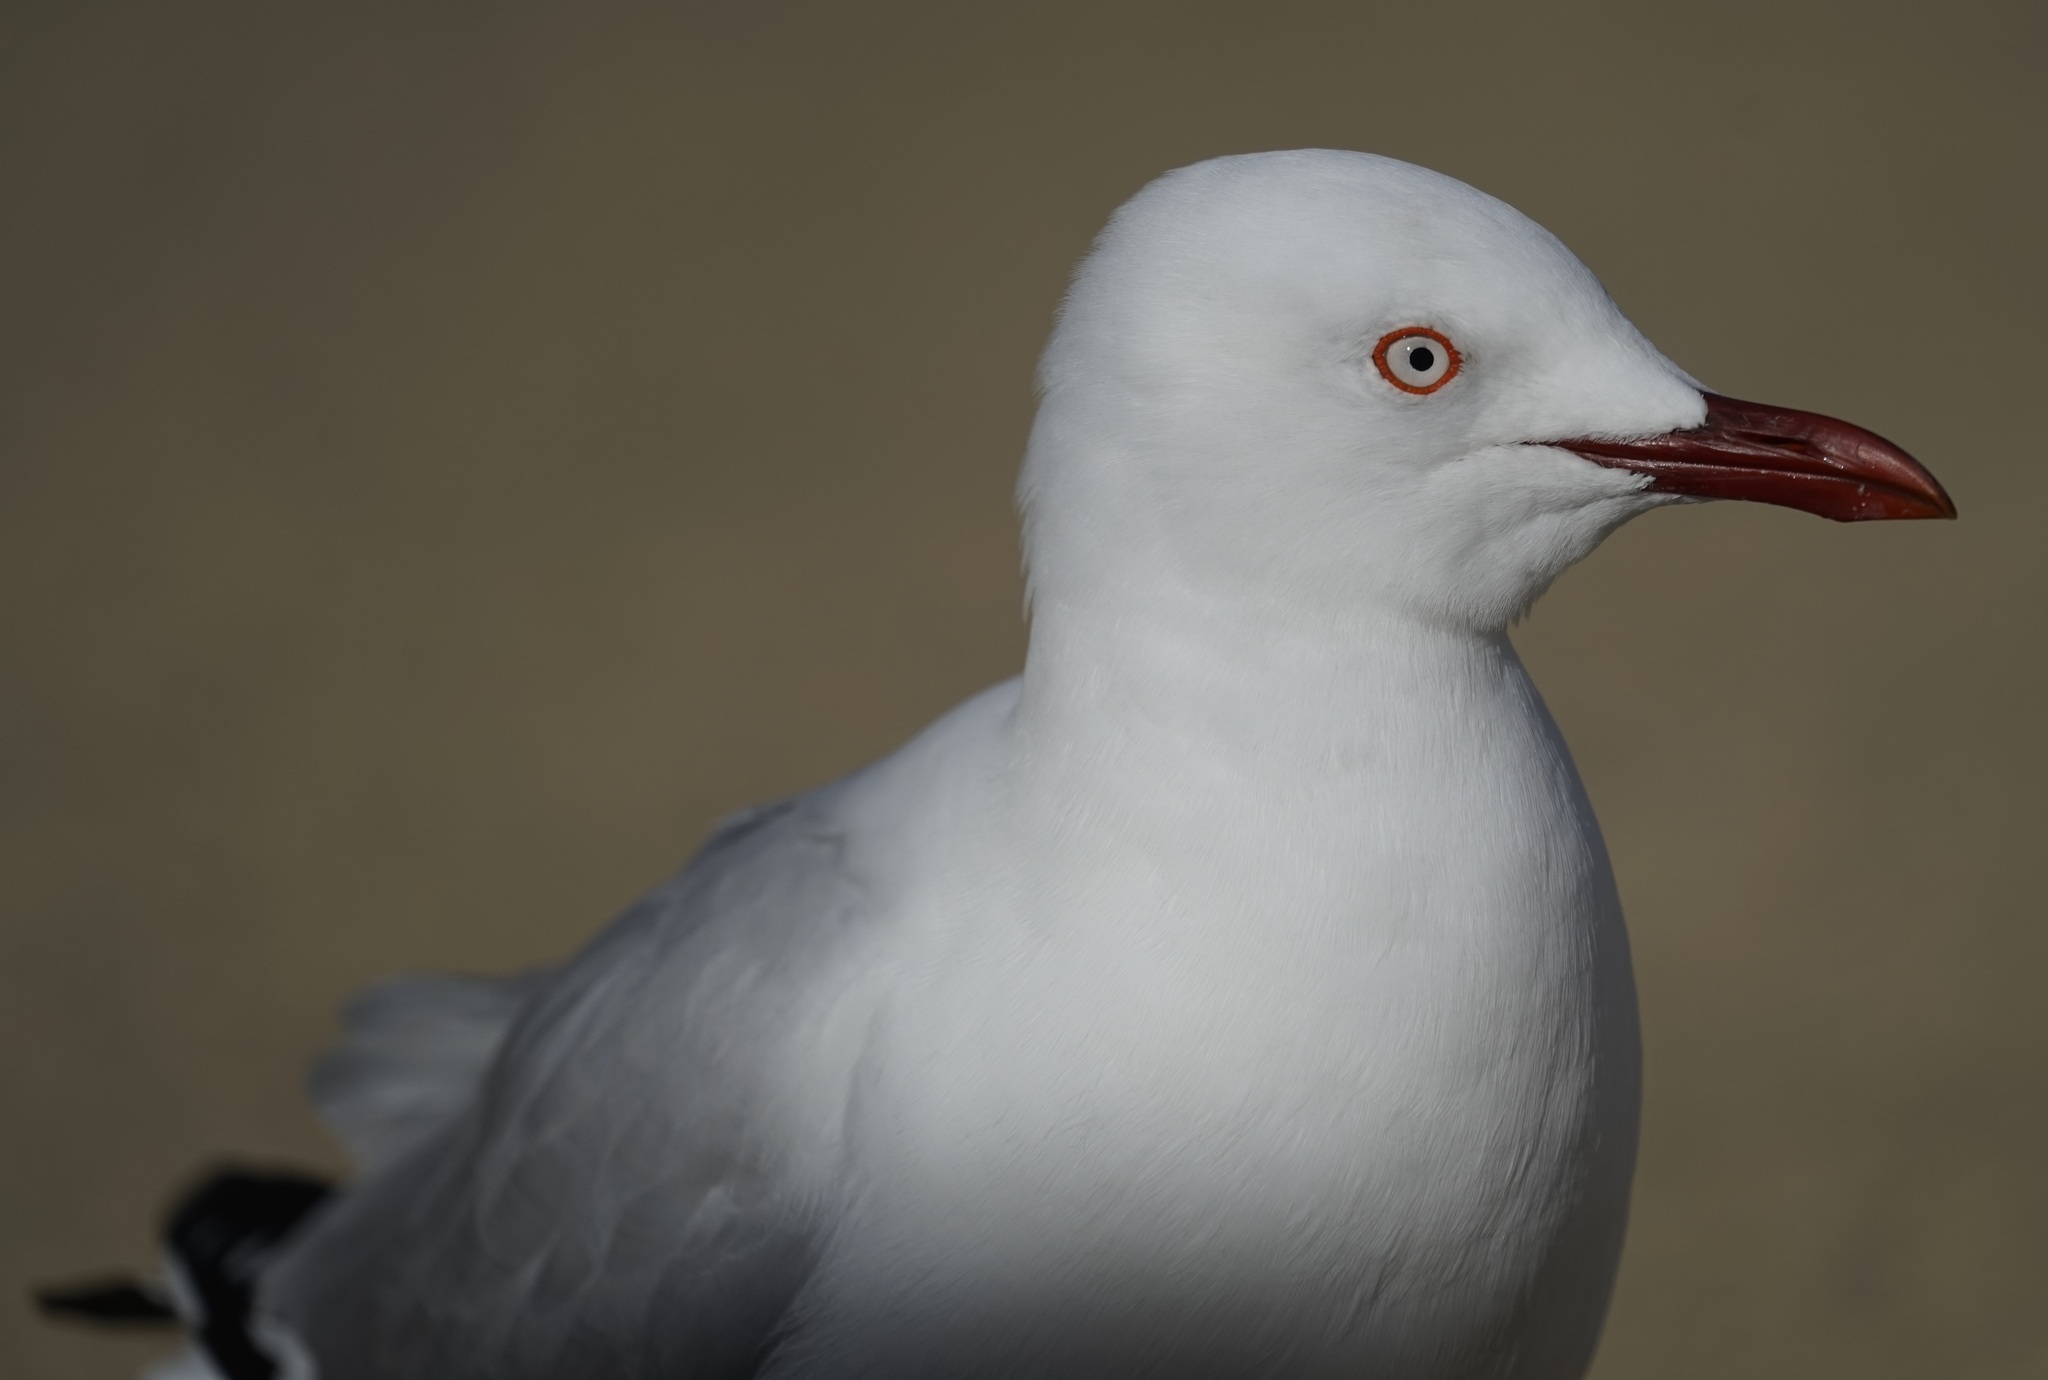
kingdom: Animalia
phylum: Chordata
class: Aves
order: Charadriiformes
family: Laridae
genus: Chroicocephalus
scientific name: Chroicocephalus novaehollandiae
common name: Silver gull
